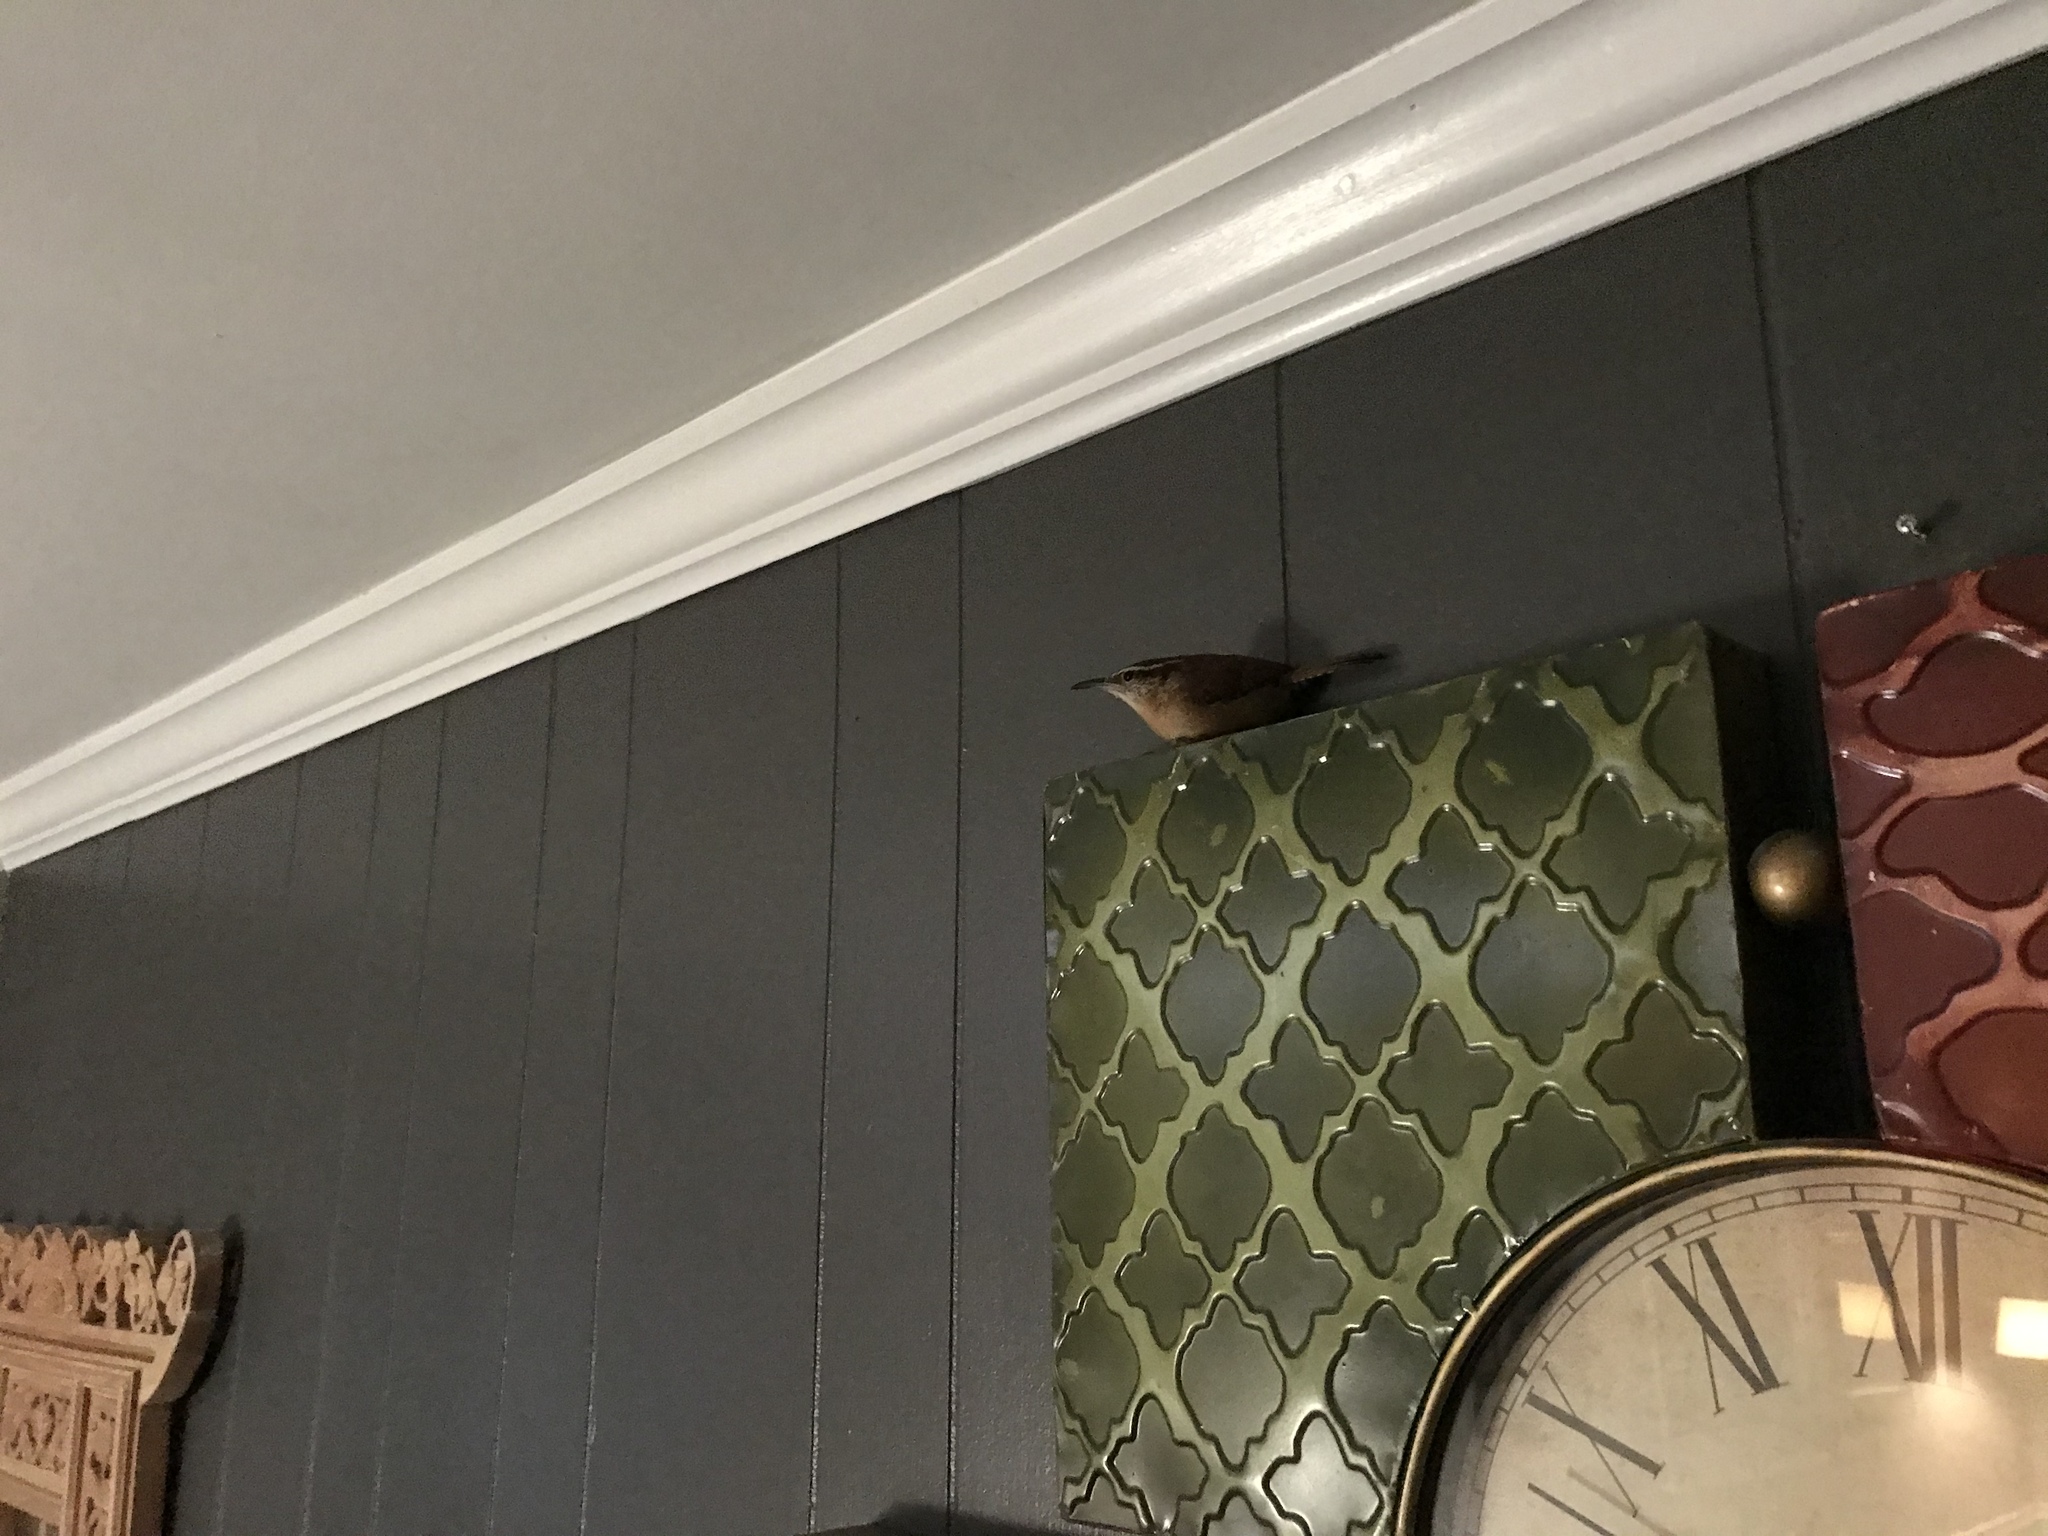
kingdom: Animalia
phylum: Chordata
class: Aves
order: Passeriformes
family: Troglodytidae
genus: Thryothorus
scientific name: Thryothorus ludovicianus
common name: Carolina wren
